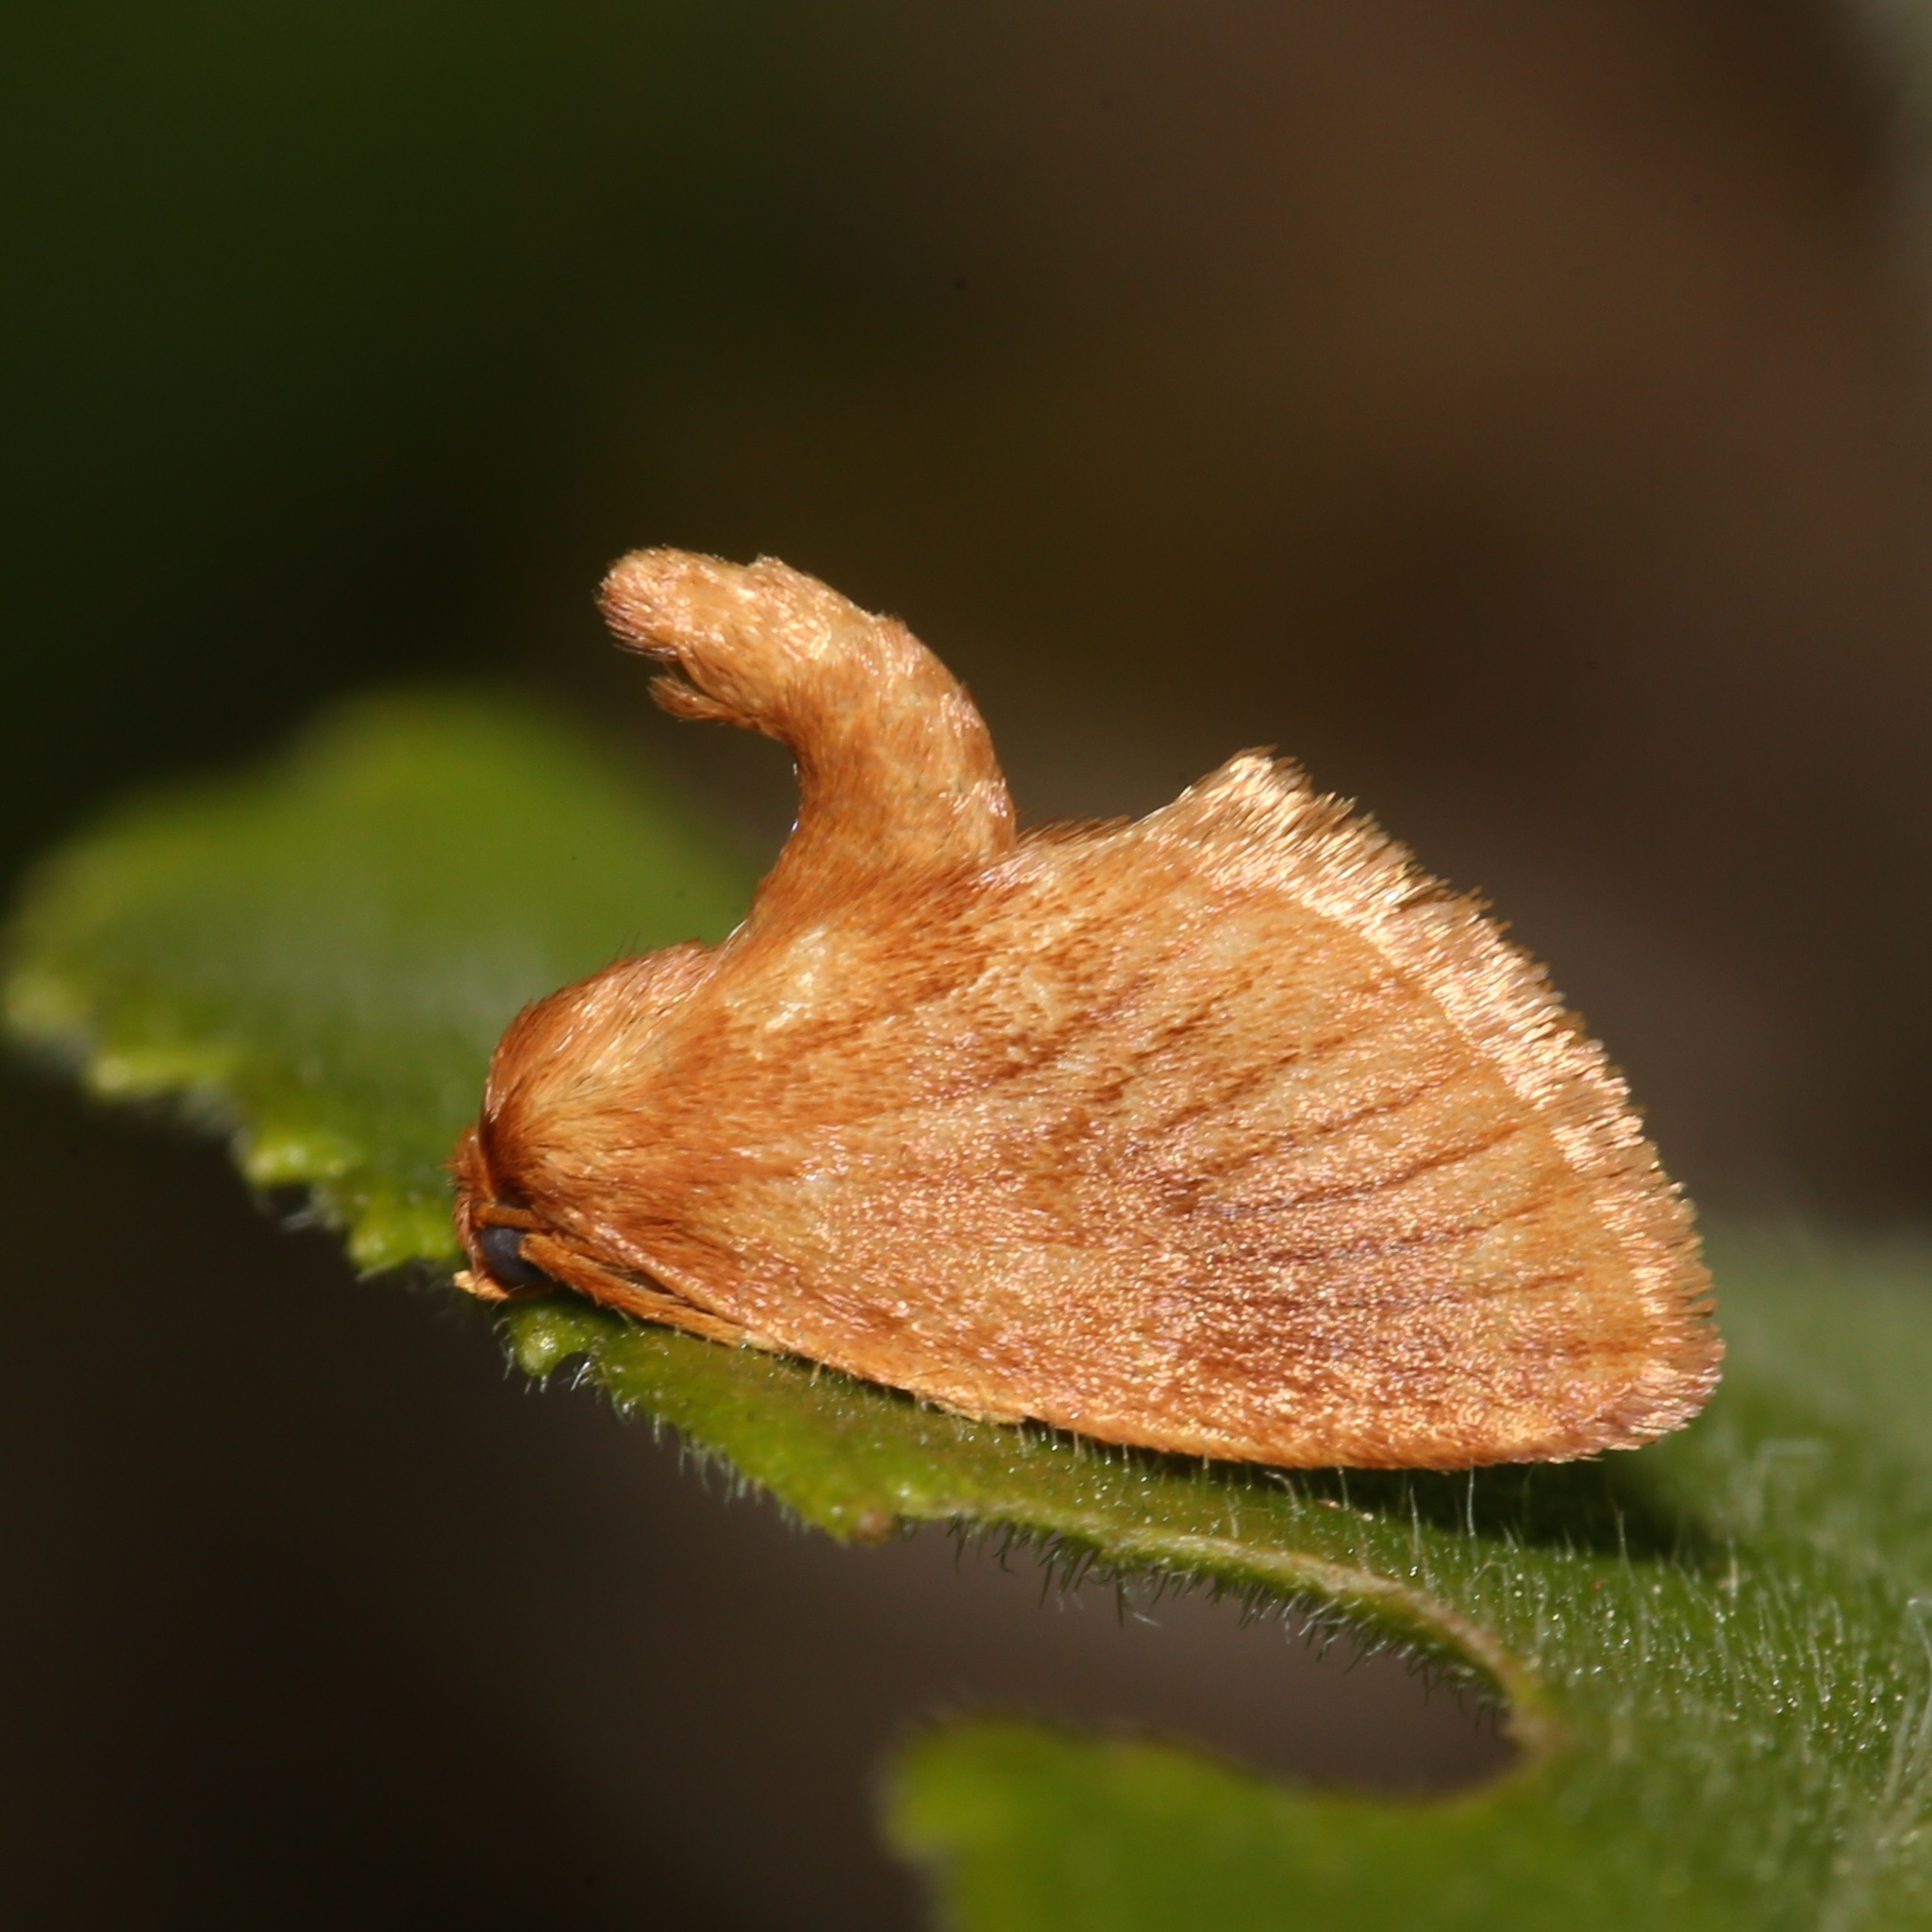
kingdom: Animalia
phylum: Arthropoda
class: Insecta
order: Lepidoptera
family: Limacodidae
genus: Tortricidia
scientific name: Tortricidia testacea
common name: Early button slug moth
